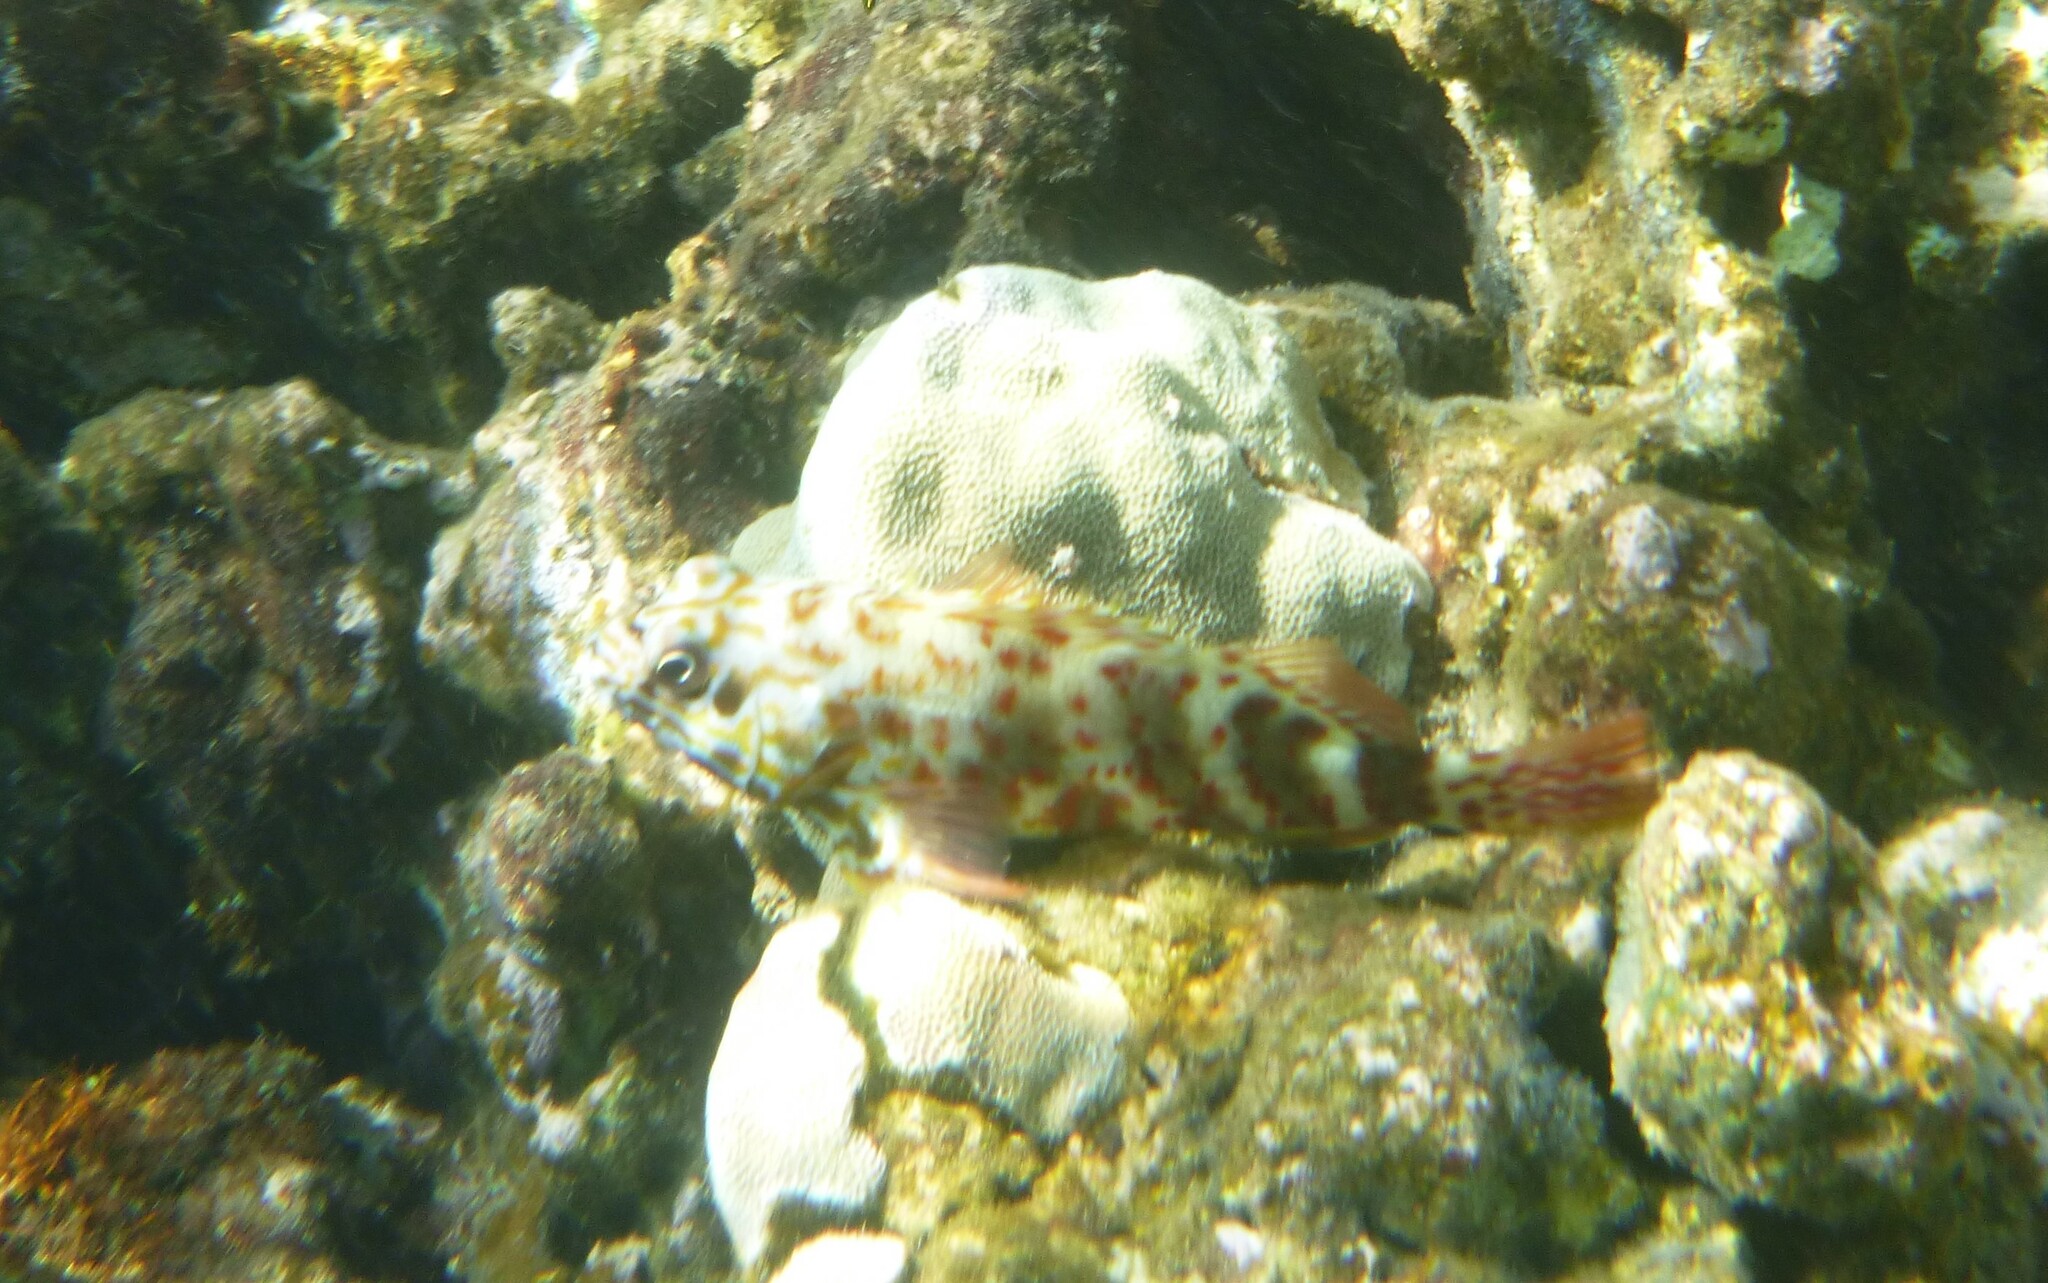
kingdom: Animalia
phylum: Chordata
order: Perciformes
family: Cirrhitidae
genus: Cirrhitus
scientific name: Cirrhitus pinnulatus
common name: Stocky hawkfish
